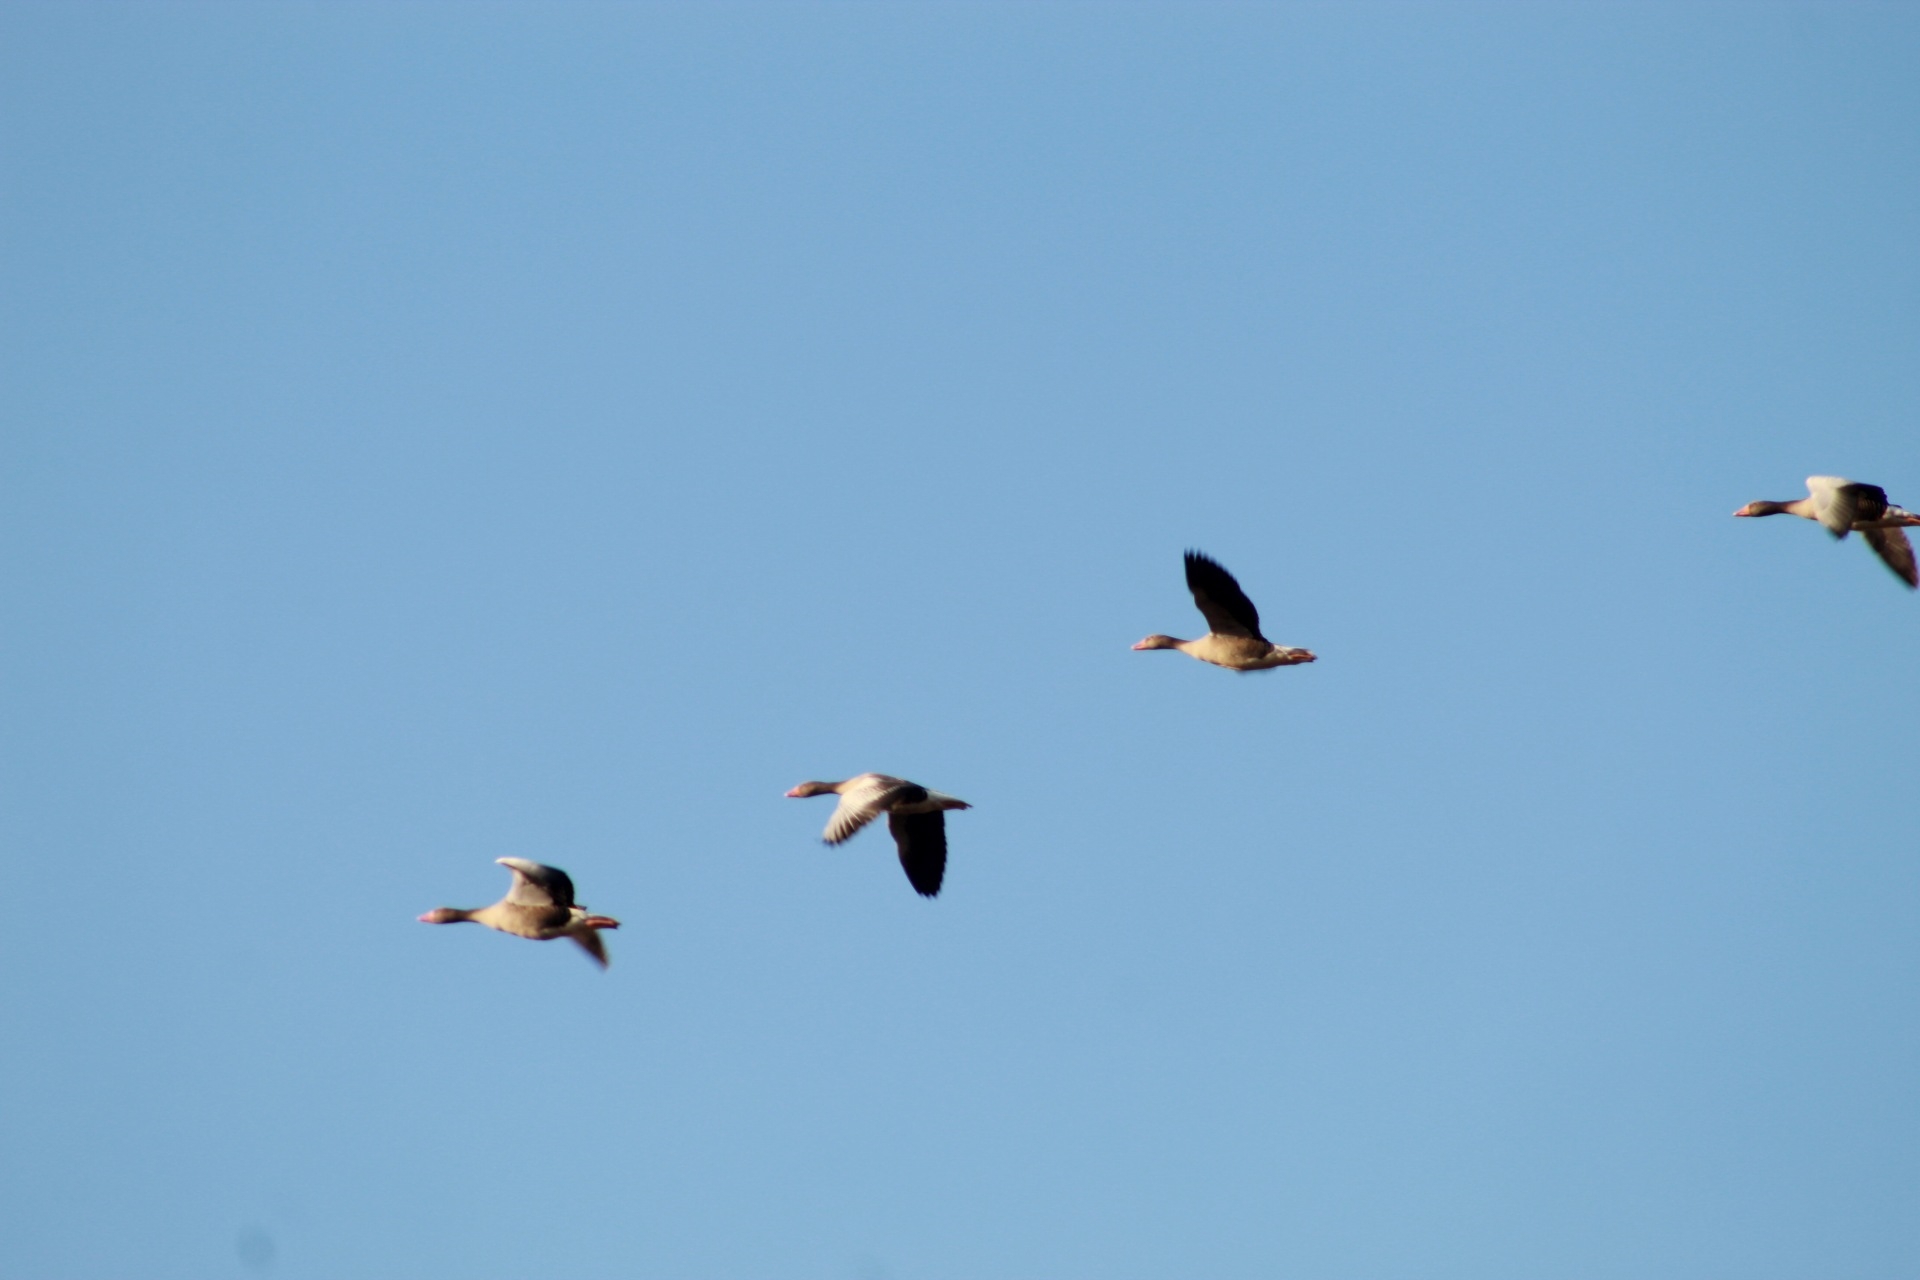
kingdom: Animalia
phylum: Chordata
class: Aves
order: Anseriformes
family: Anatidae
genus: Anser
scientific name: Anser anser
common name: Greylag goose
